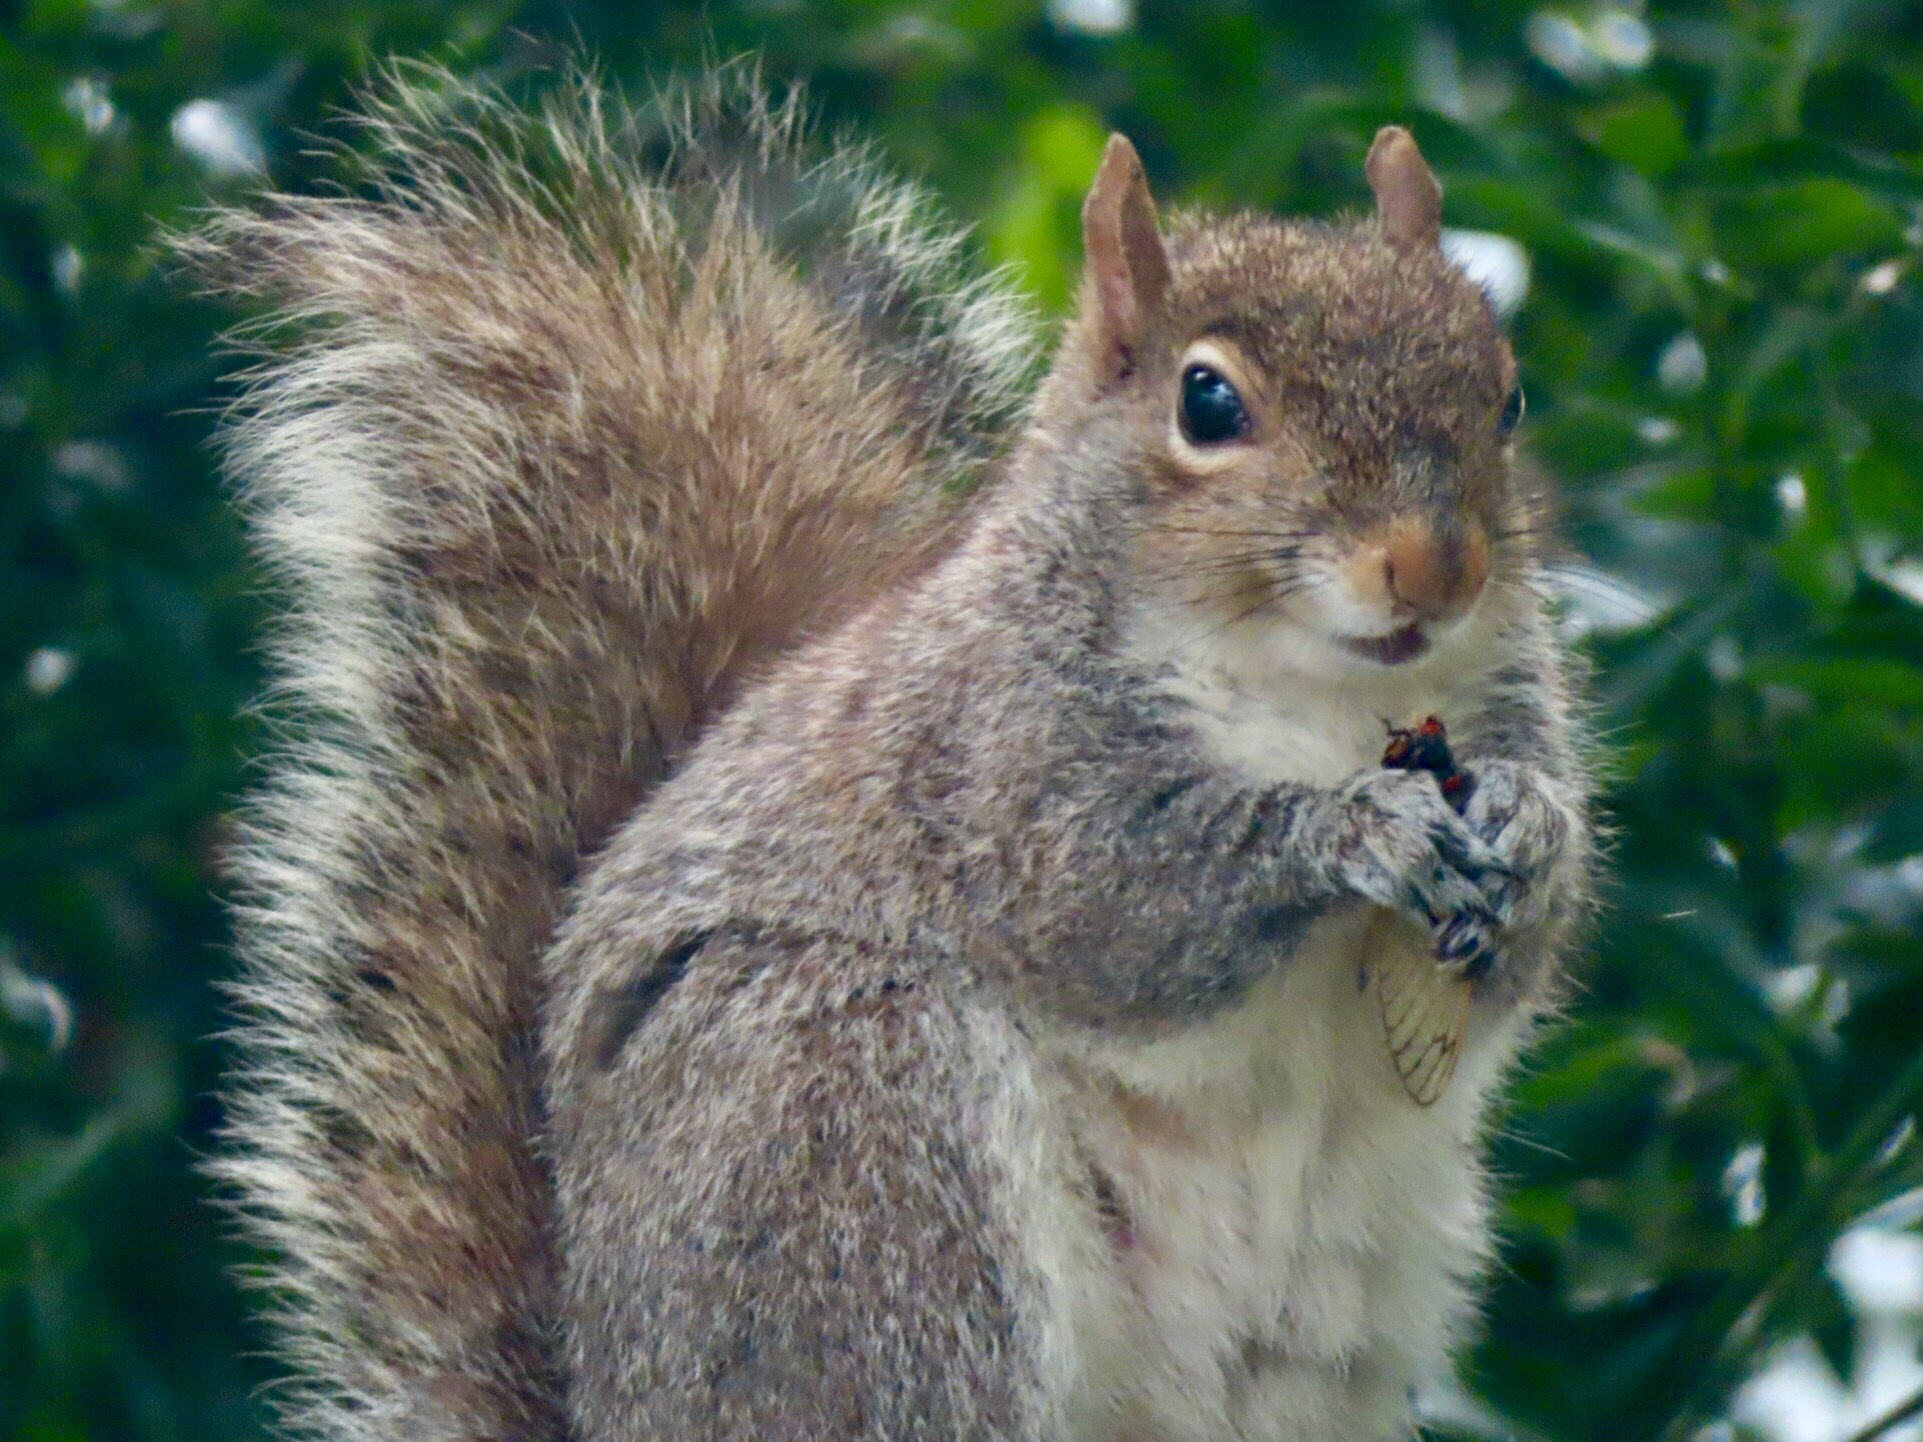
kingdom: Animalia
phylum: Chordata
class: Mammalia
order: Rodentia
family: Sciuridae
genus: Sciurus
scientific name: Sciurus carolinensis
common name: Eastern gray squirrel
